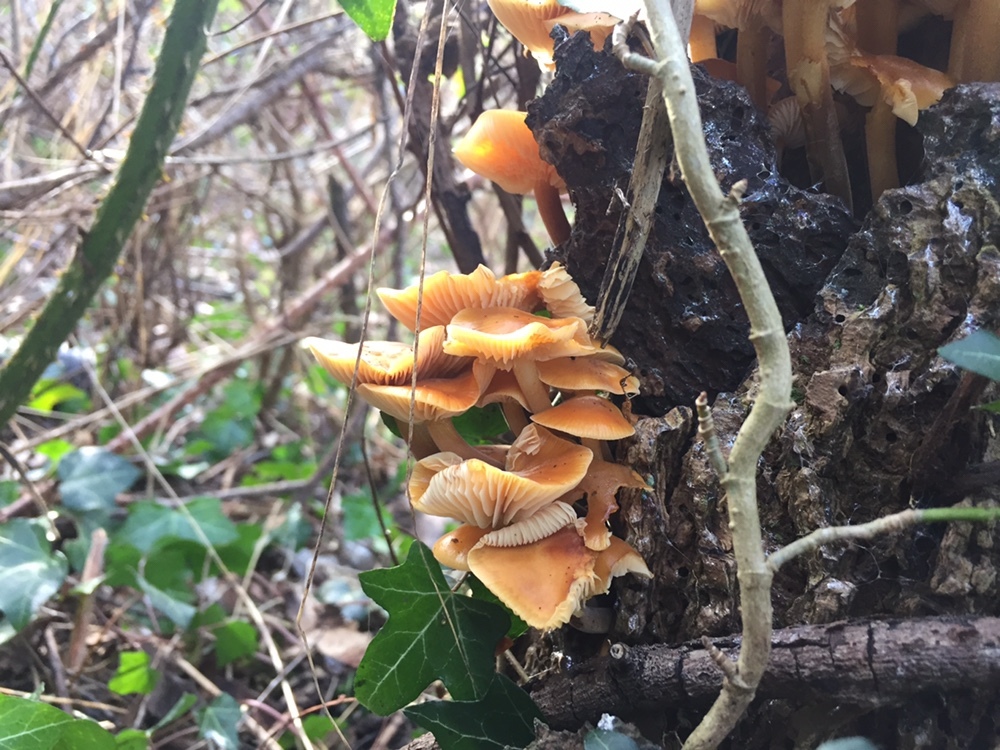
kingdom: Fungi
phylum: Basidiomycota
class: Agaricomycetes
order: Agaricales
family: Physalacriaceae
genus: Flammulina
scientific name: Flammulina
